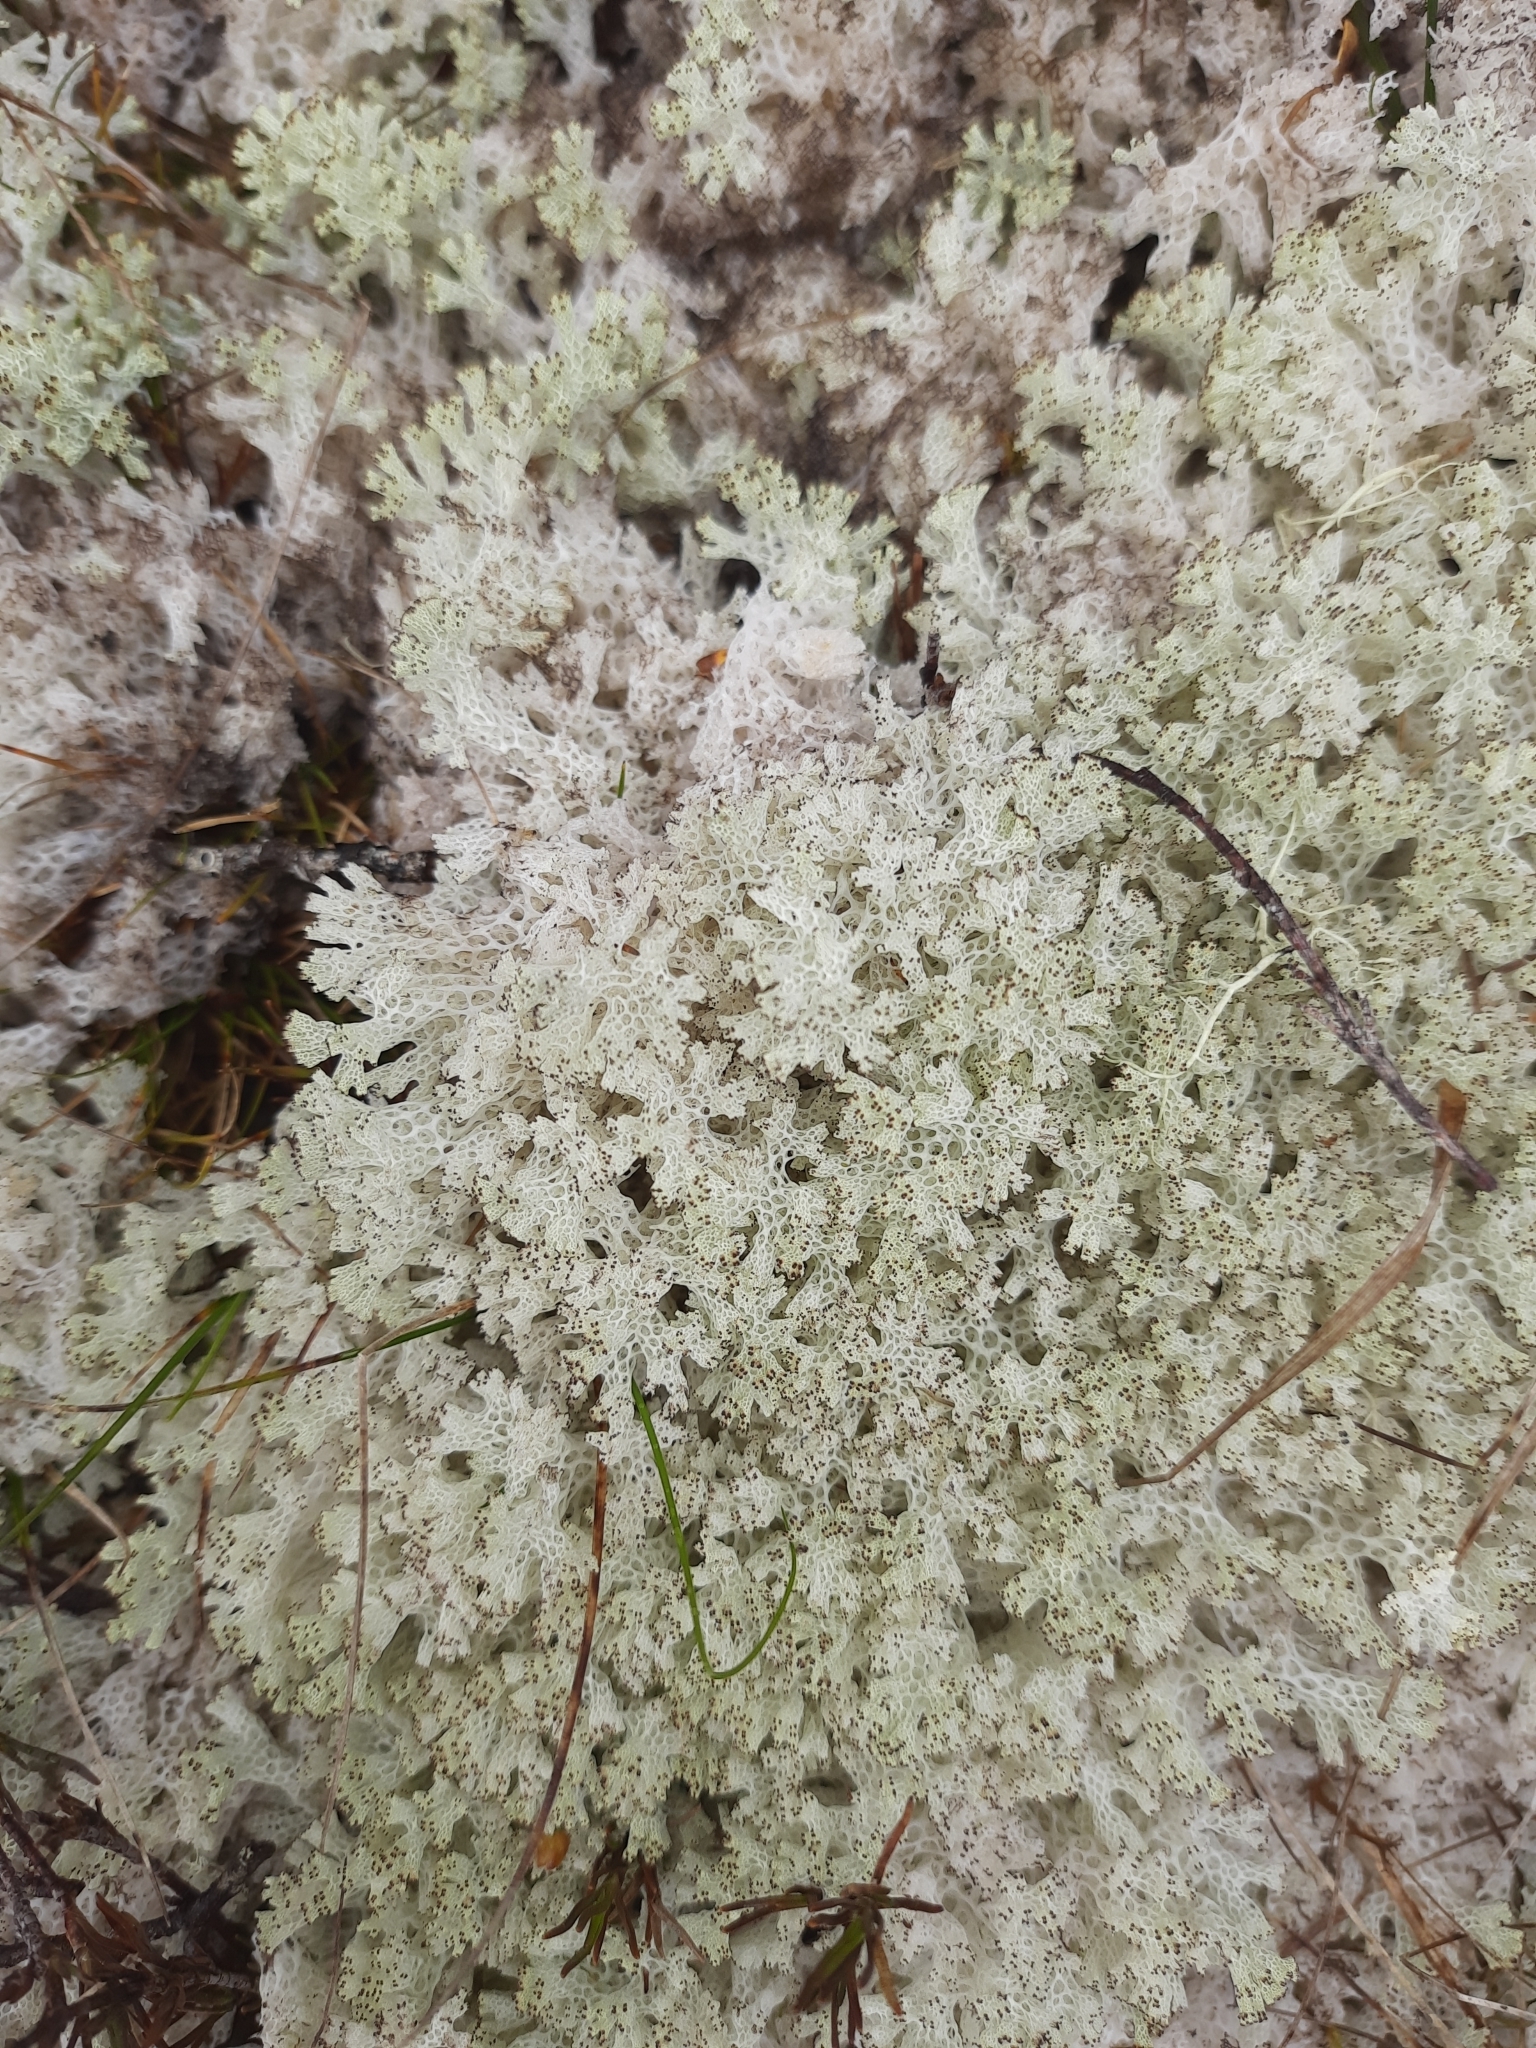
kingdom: Fungi
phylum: Ascomycota
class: Lecanoromycetes
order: Lecanorales
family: Cladoniaceae
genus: Pulchrocladia
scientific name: Pulchrocladia retipora
